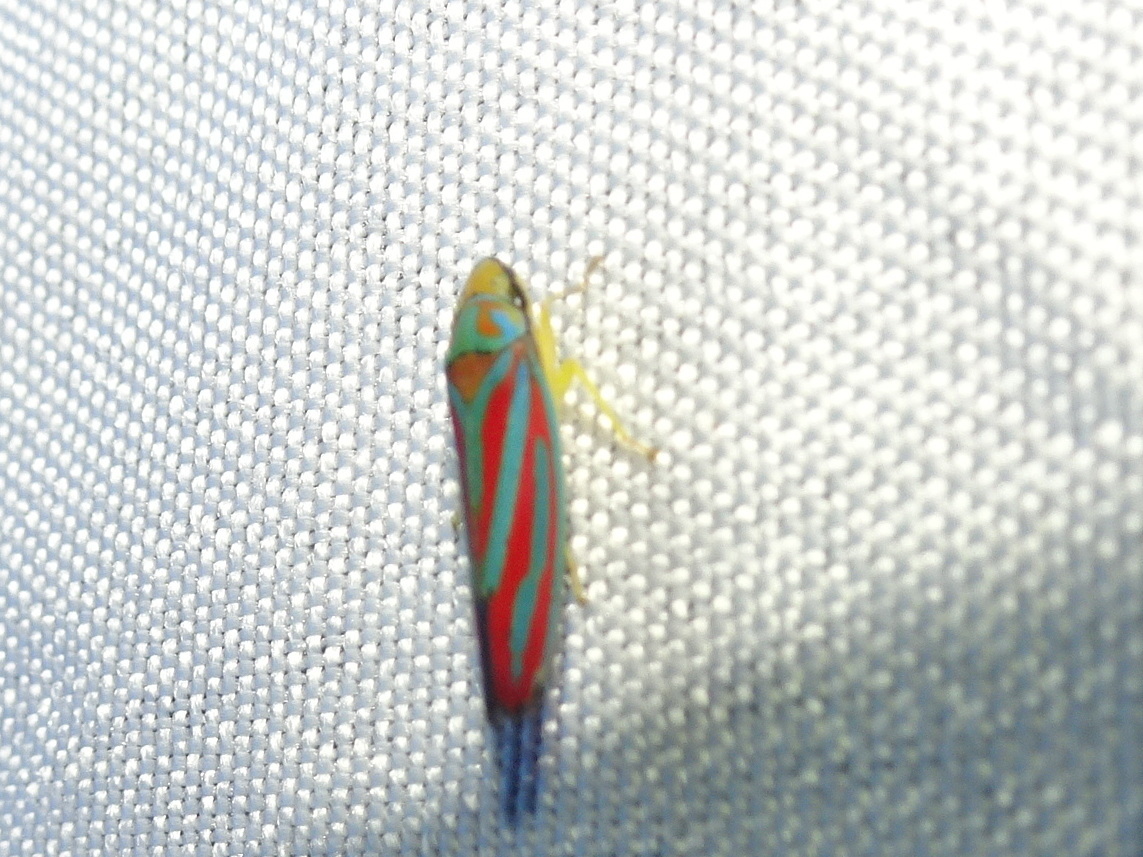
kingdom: Animalia
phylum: Arthropoda
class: Insecta
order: Hemiptera
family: Cicadellidae
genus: Graphocephala
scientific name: Graphocephala coccinea
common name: Candy-striped leafhopper
